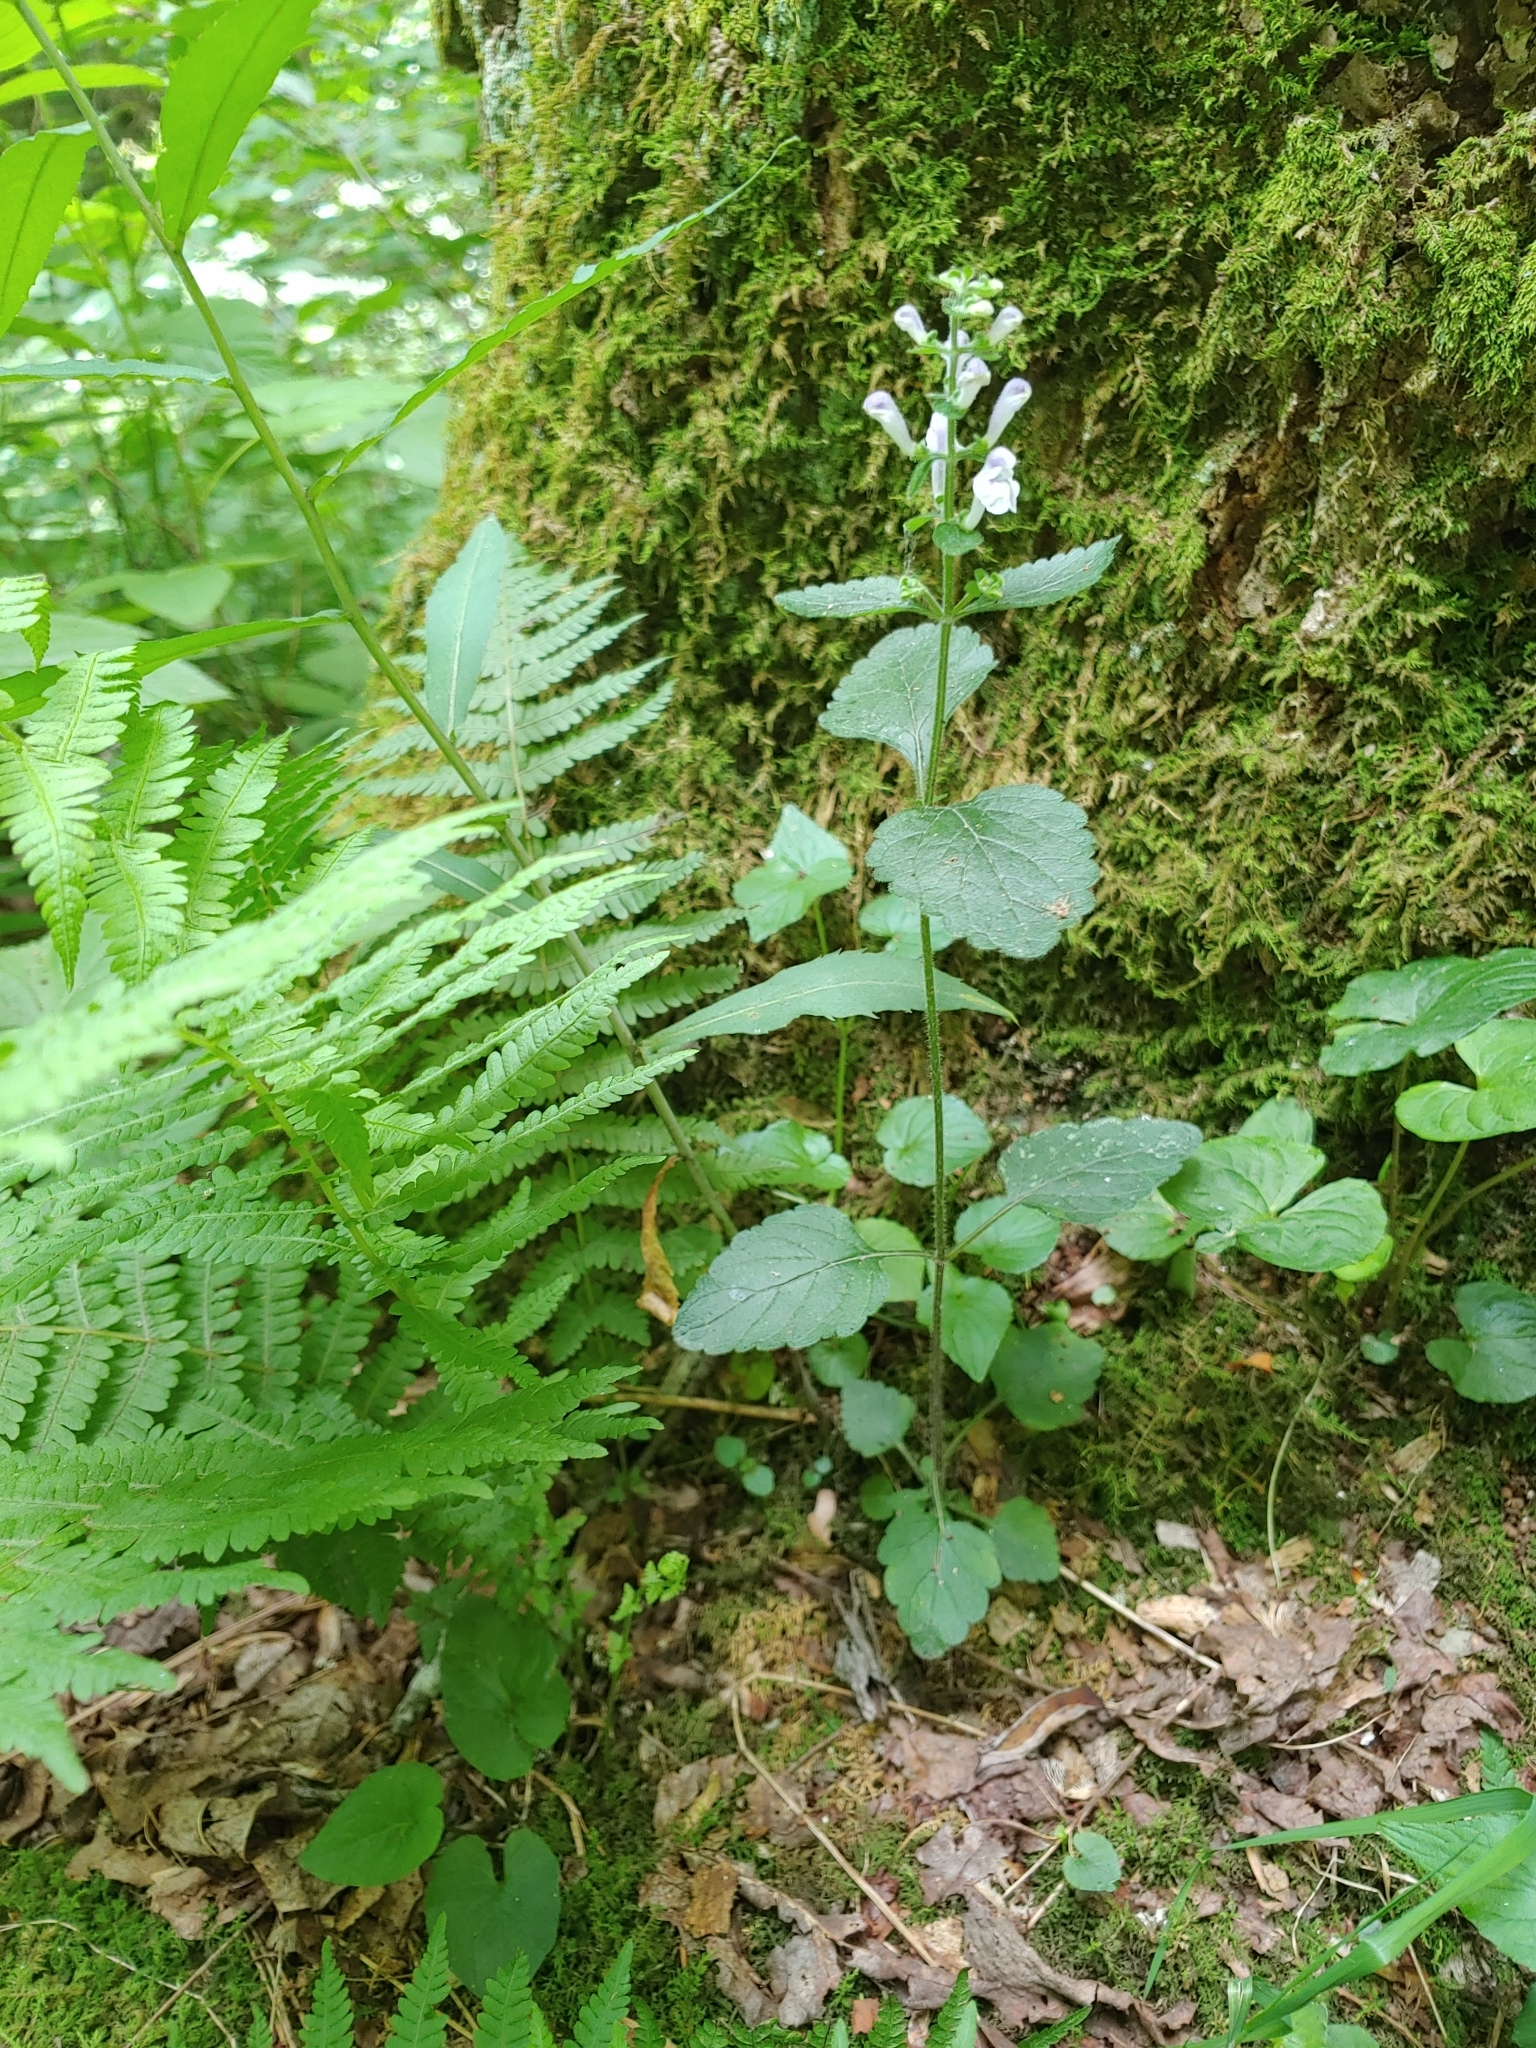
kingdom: Plantae
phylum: Tracheophyta
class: Magnoliopsida
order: Lamiales
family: Lamiaceae
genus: Scutellaria
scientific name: Scutellaria elliptica
